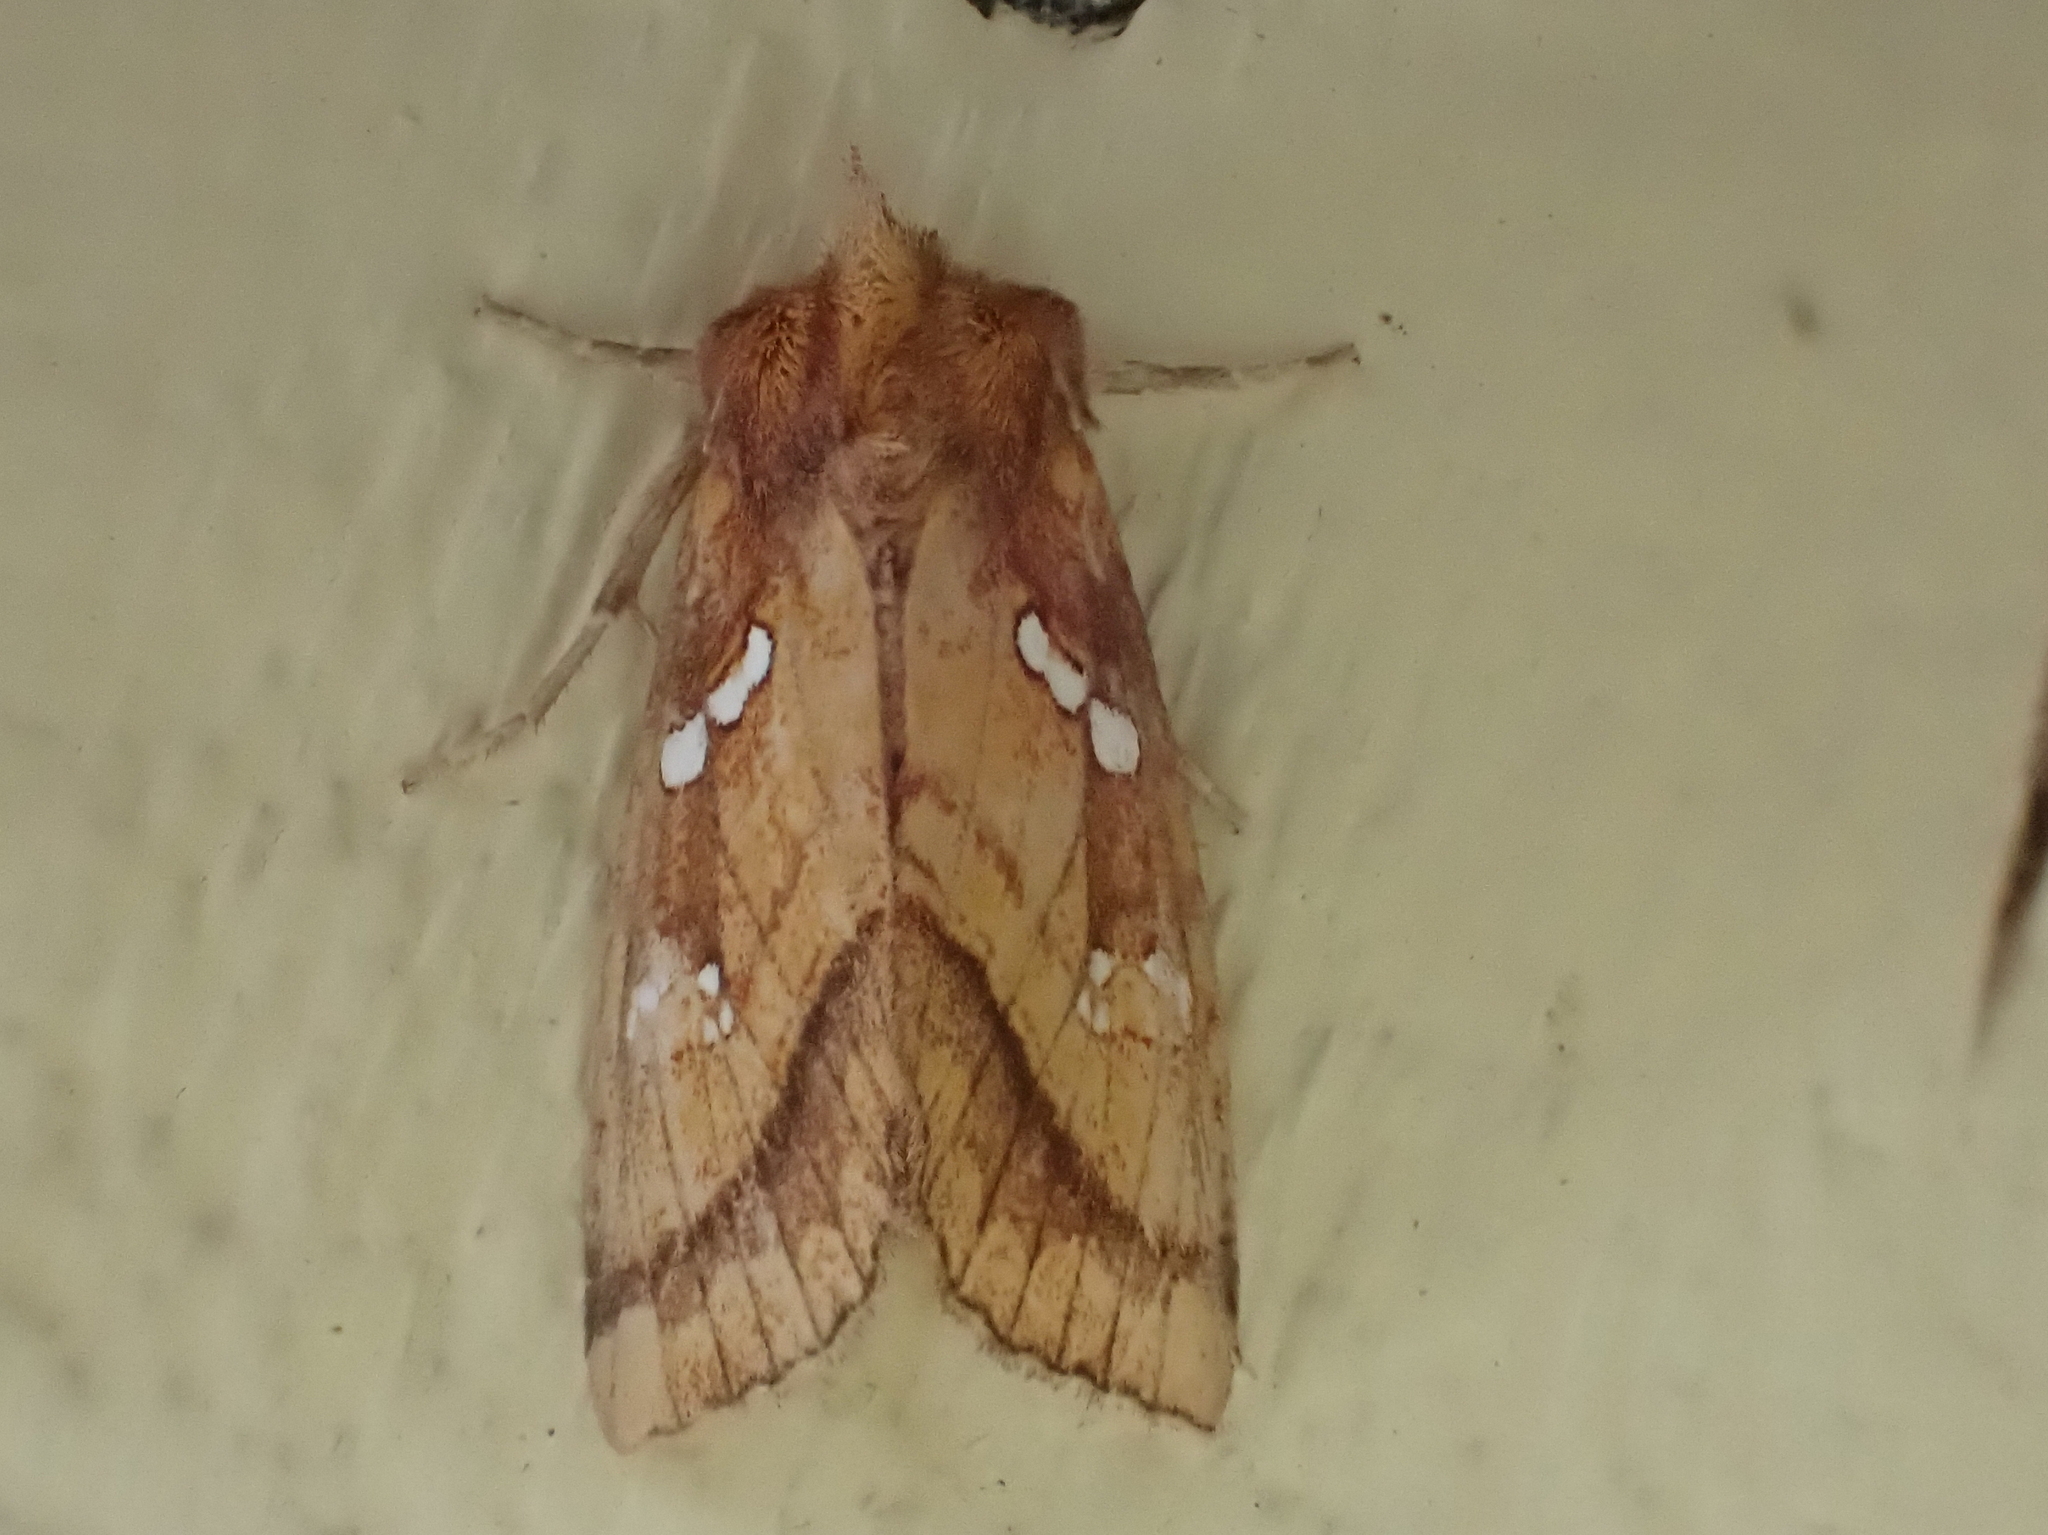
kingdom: Animalia
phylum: Arthropoda
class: Insecta
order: Lepidoptera
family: Noctuidae
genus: Papaipema
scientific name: Papaipema pterisii
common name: Bracken borer moth
